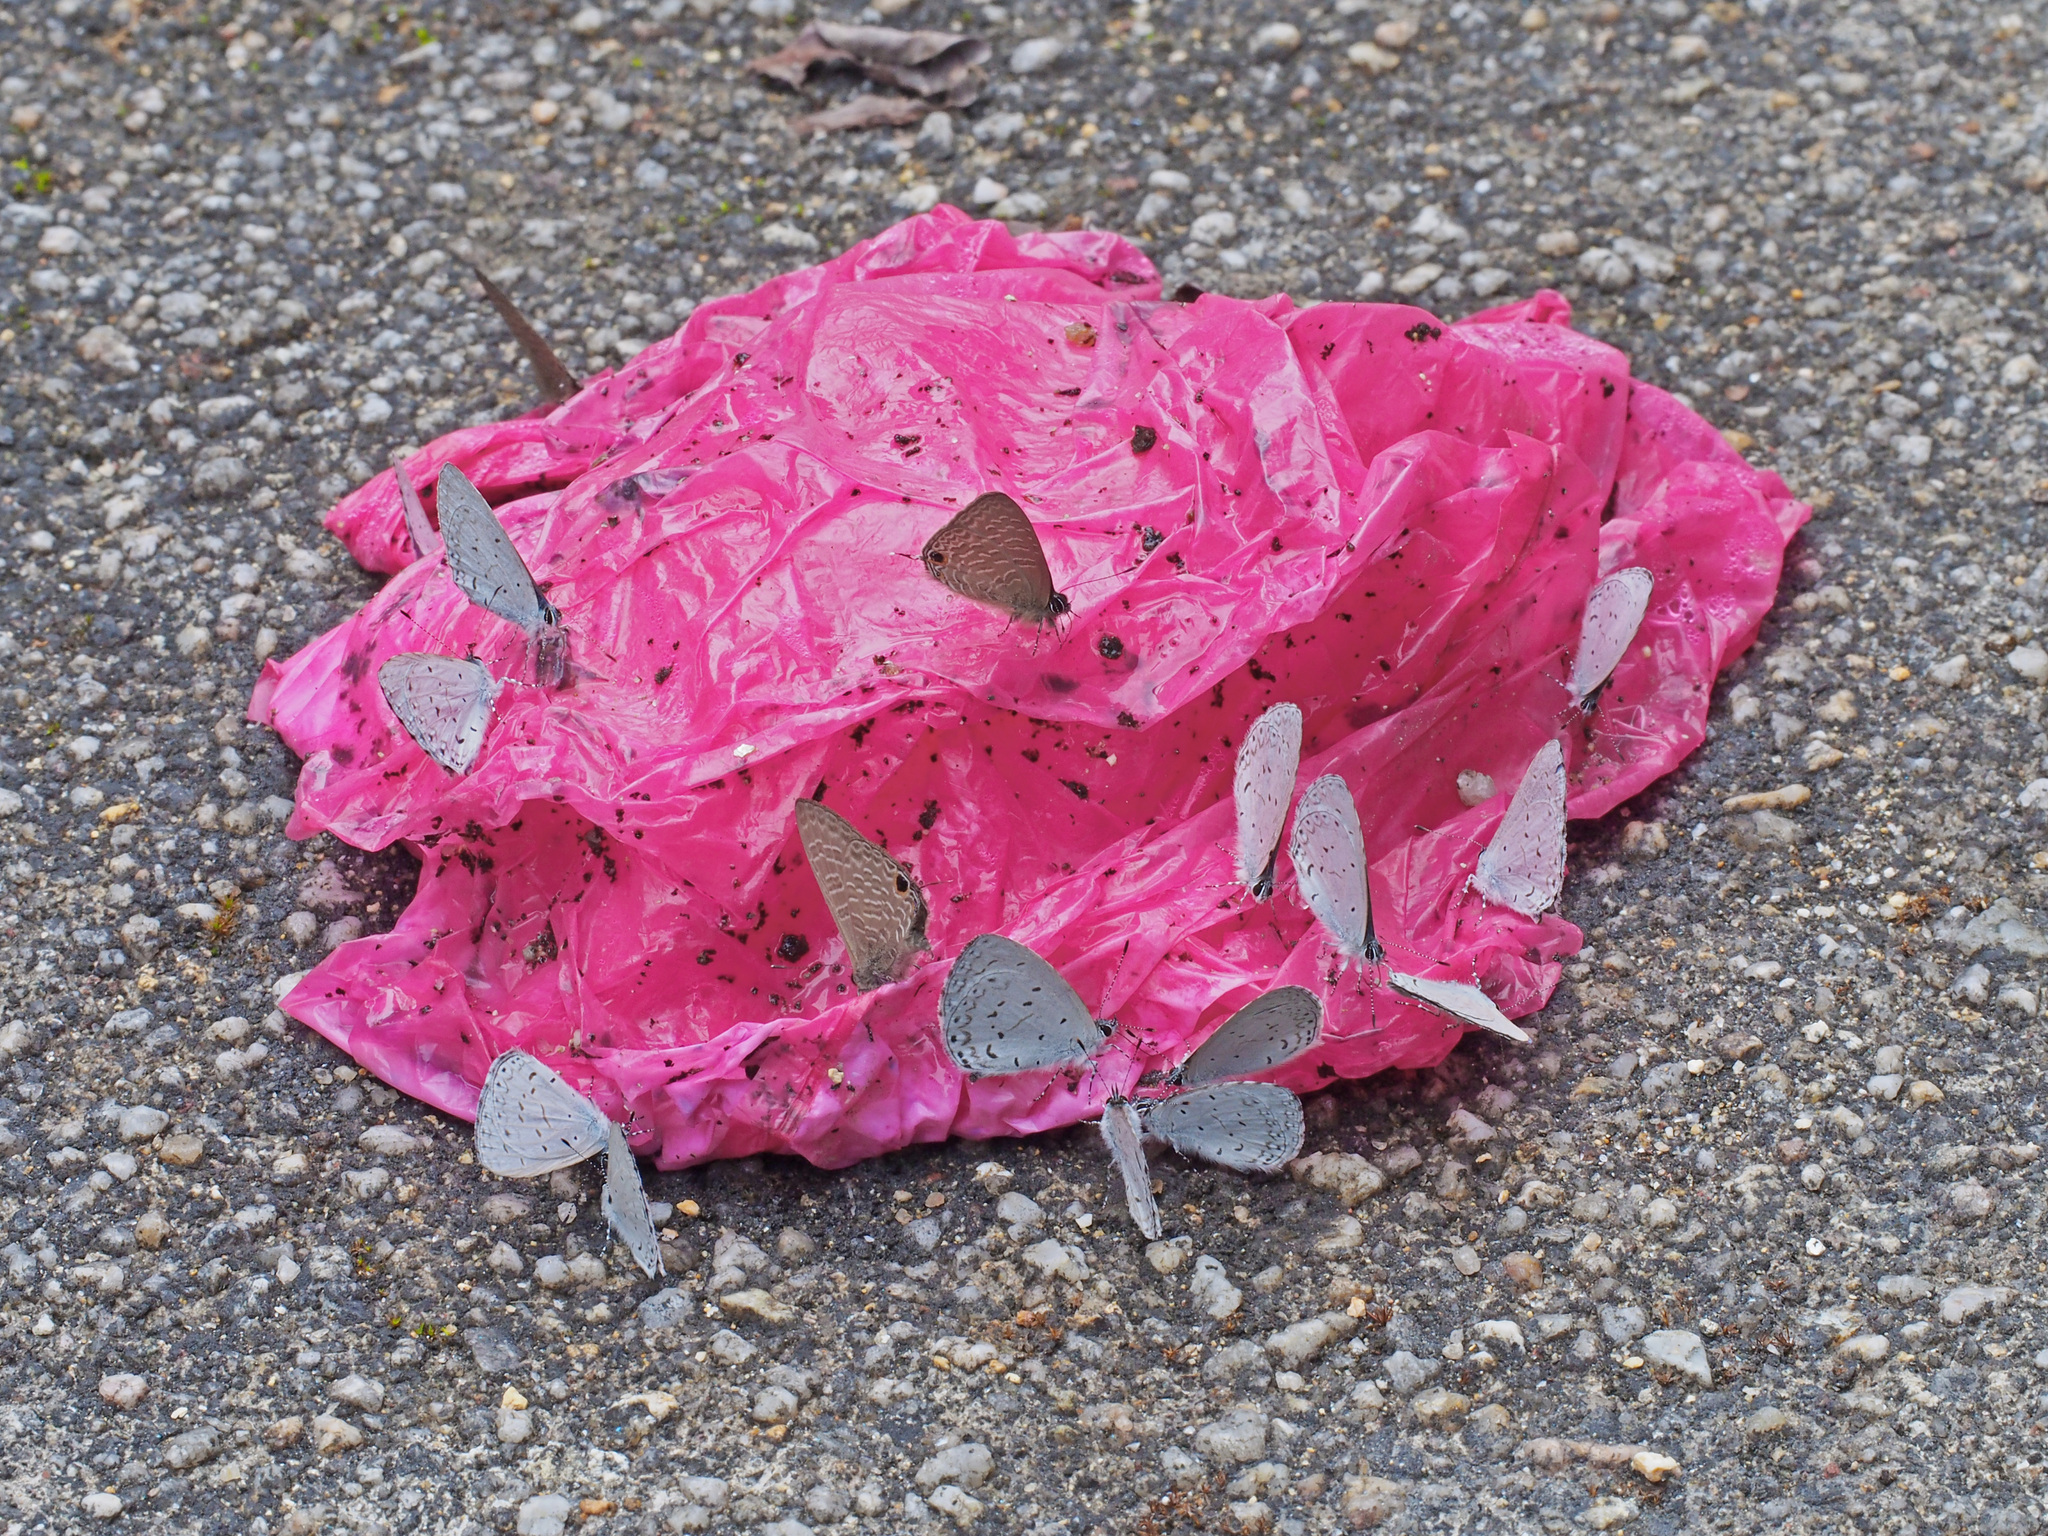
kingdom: Animalia
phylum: Arthropoda
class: Insecta
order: Lepidoptera
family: Lycaenidae
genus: Udara
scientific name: Udara dilectus
